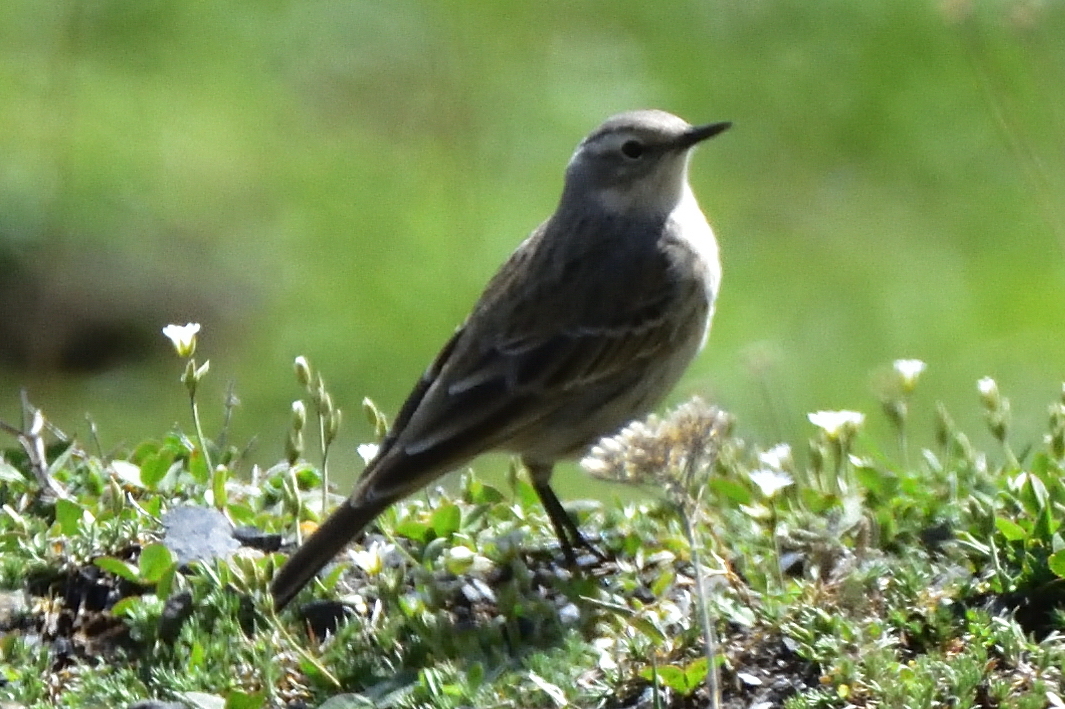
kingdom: Animalia
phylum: Chordata
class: Aves
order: Passeriformes
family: Motacillidae
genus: Anthus
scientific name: Anthus spinoletta
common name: Water pipit
